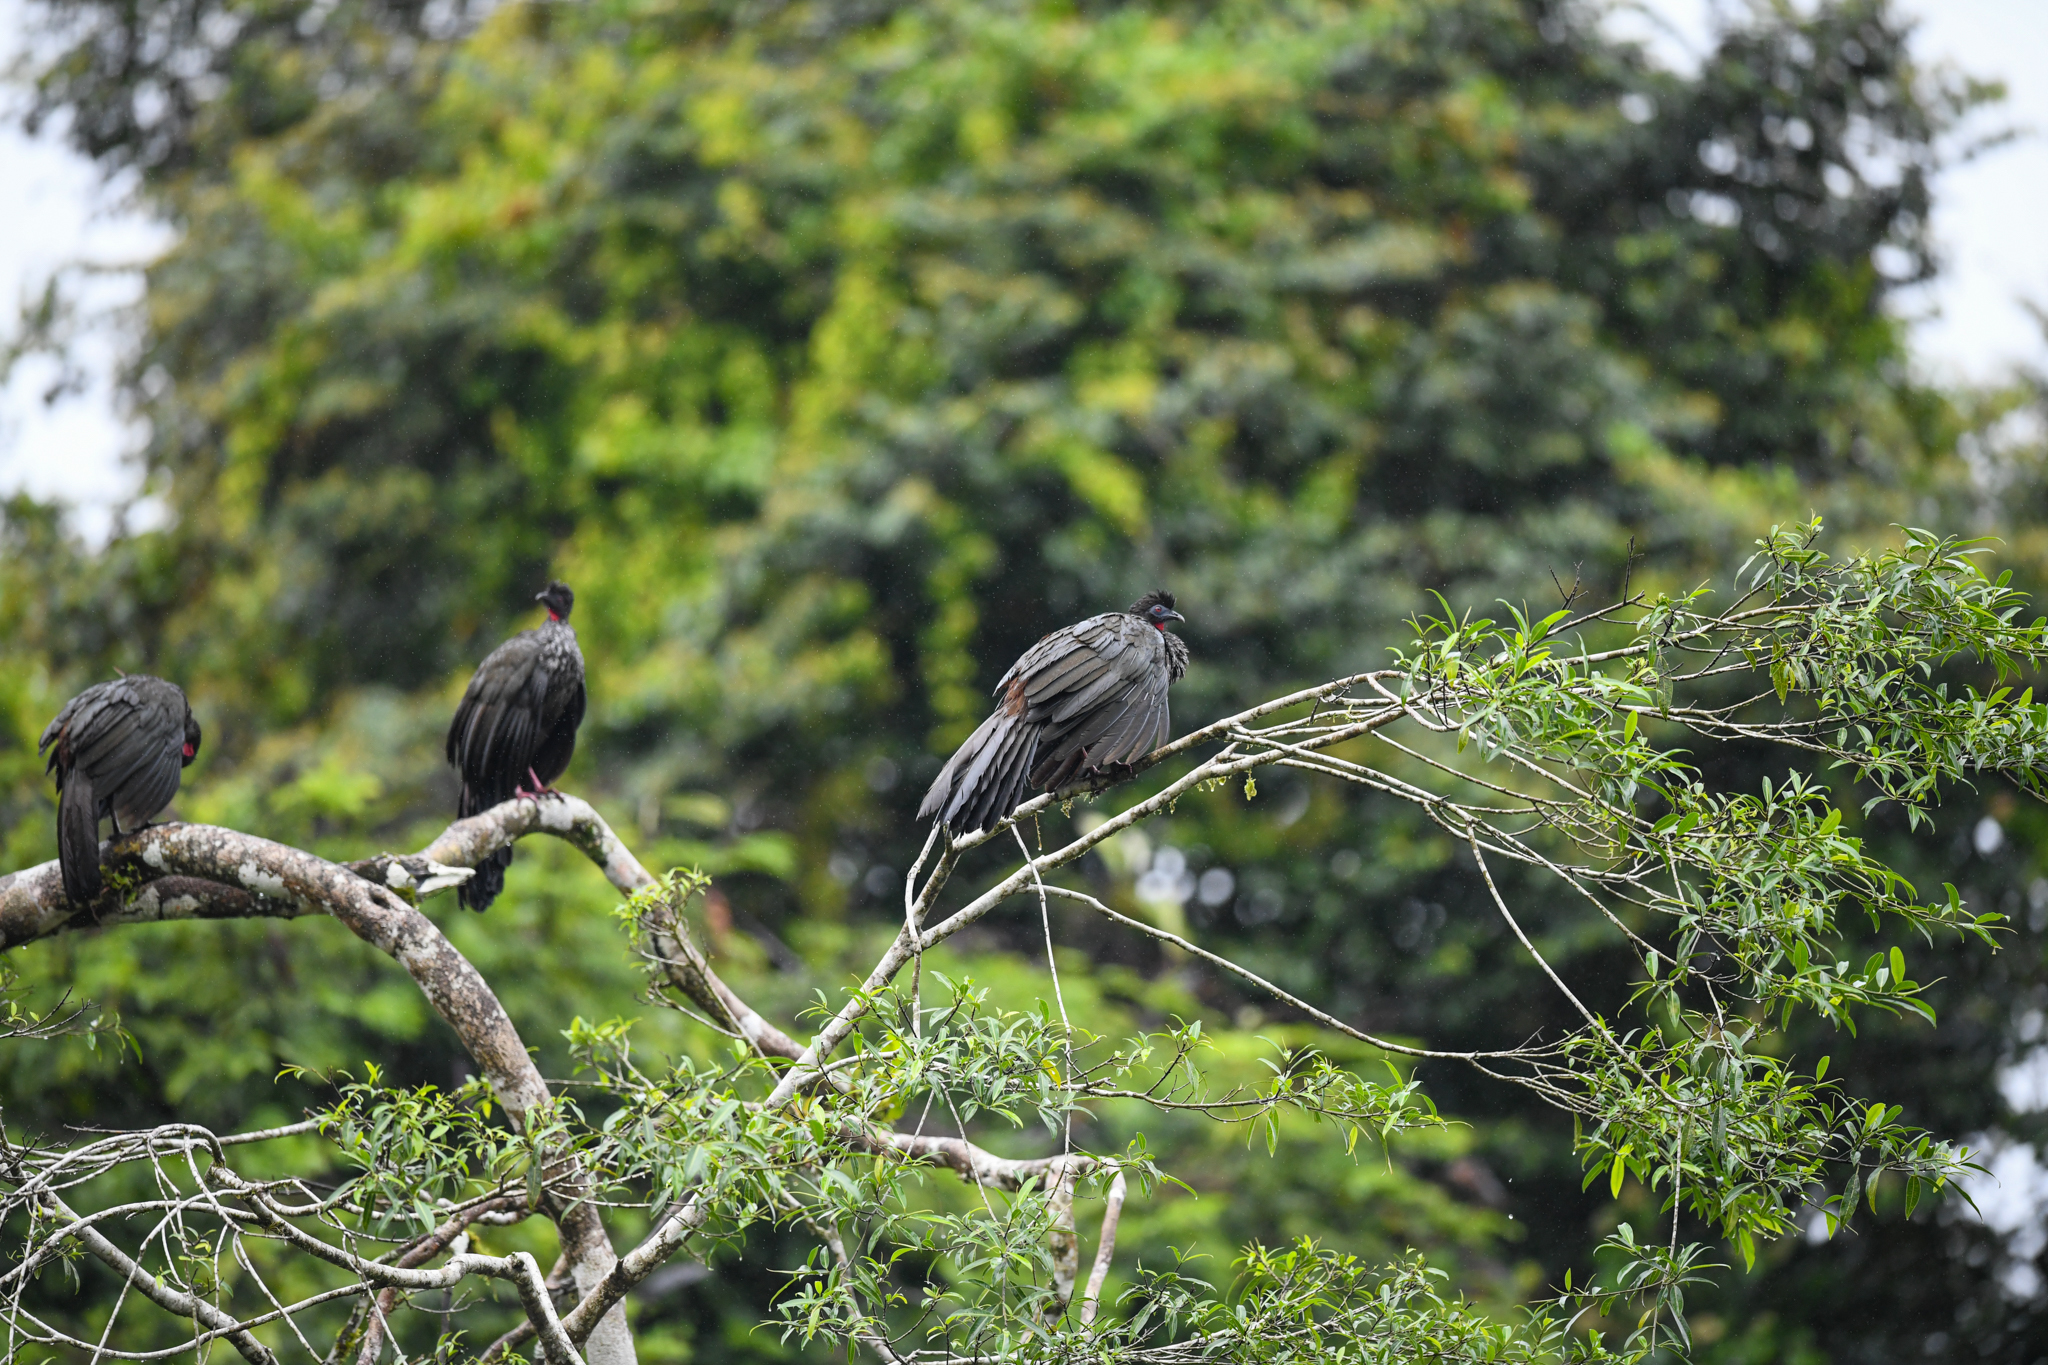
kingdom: Animalia
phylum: Chordata
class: Aves
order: Galliformes
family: Cracidae
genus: Penelope
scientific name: Penelope purpurascens
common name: Crested guan
